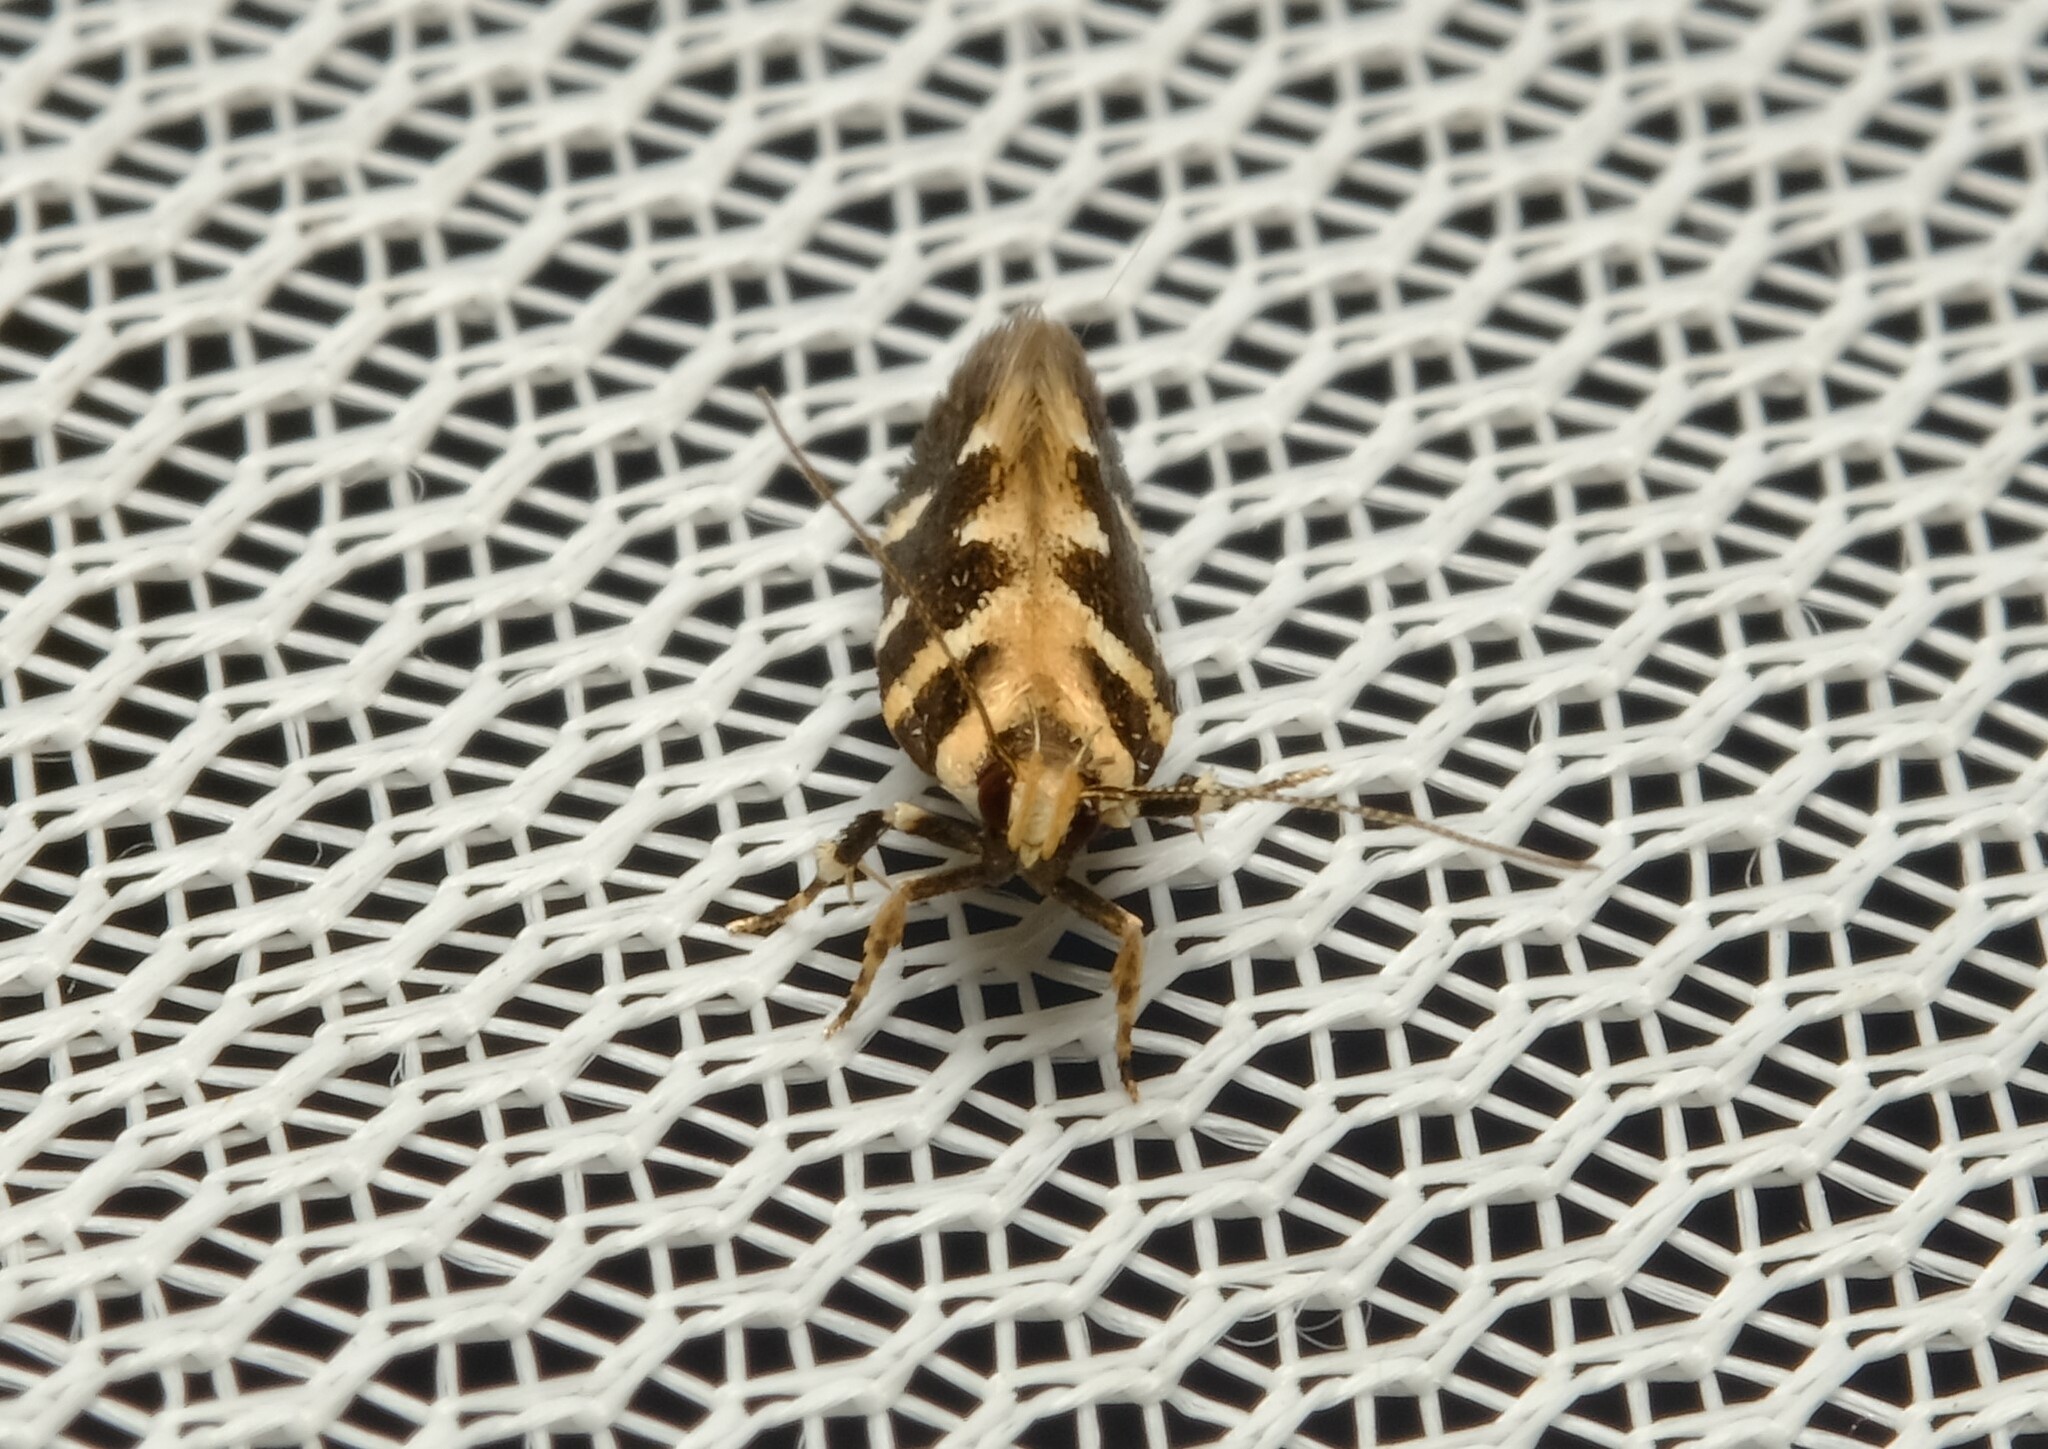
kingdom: Animalia
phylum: Arthropoda
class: Insecta
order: Lepidoptera
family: Cosmopterigidae
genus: Macrobathra
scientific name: Macrobathra bigerella
